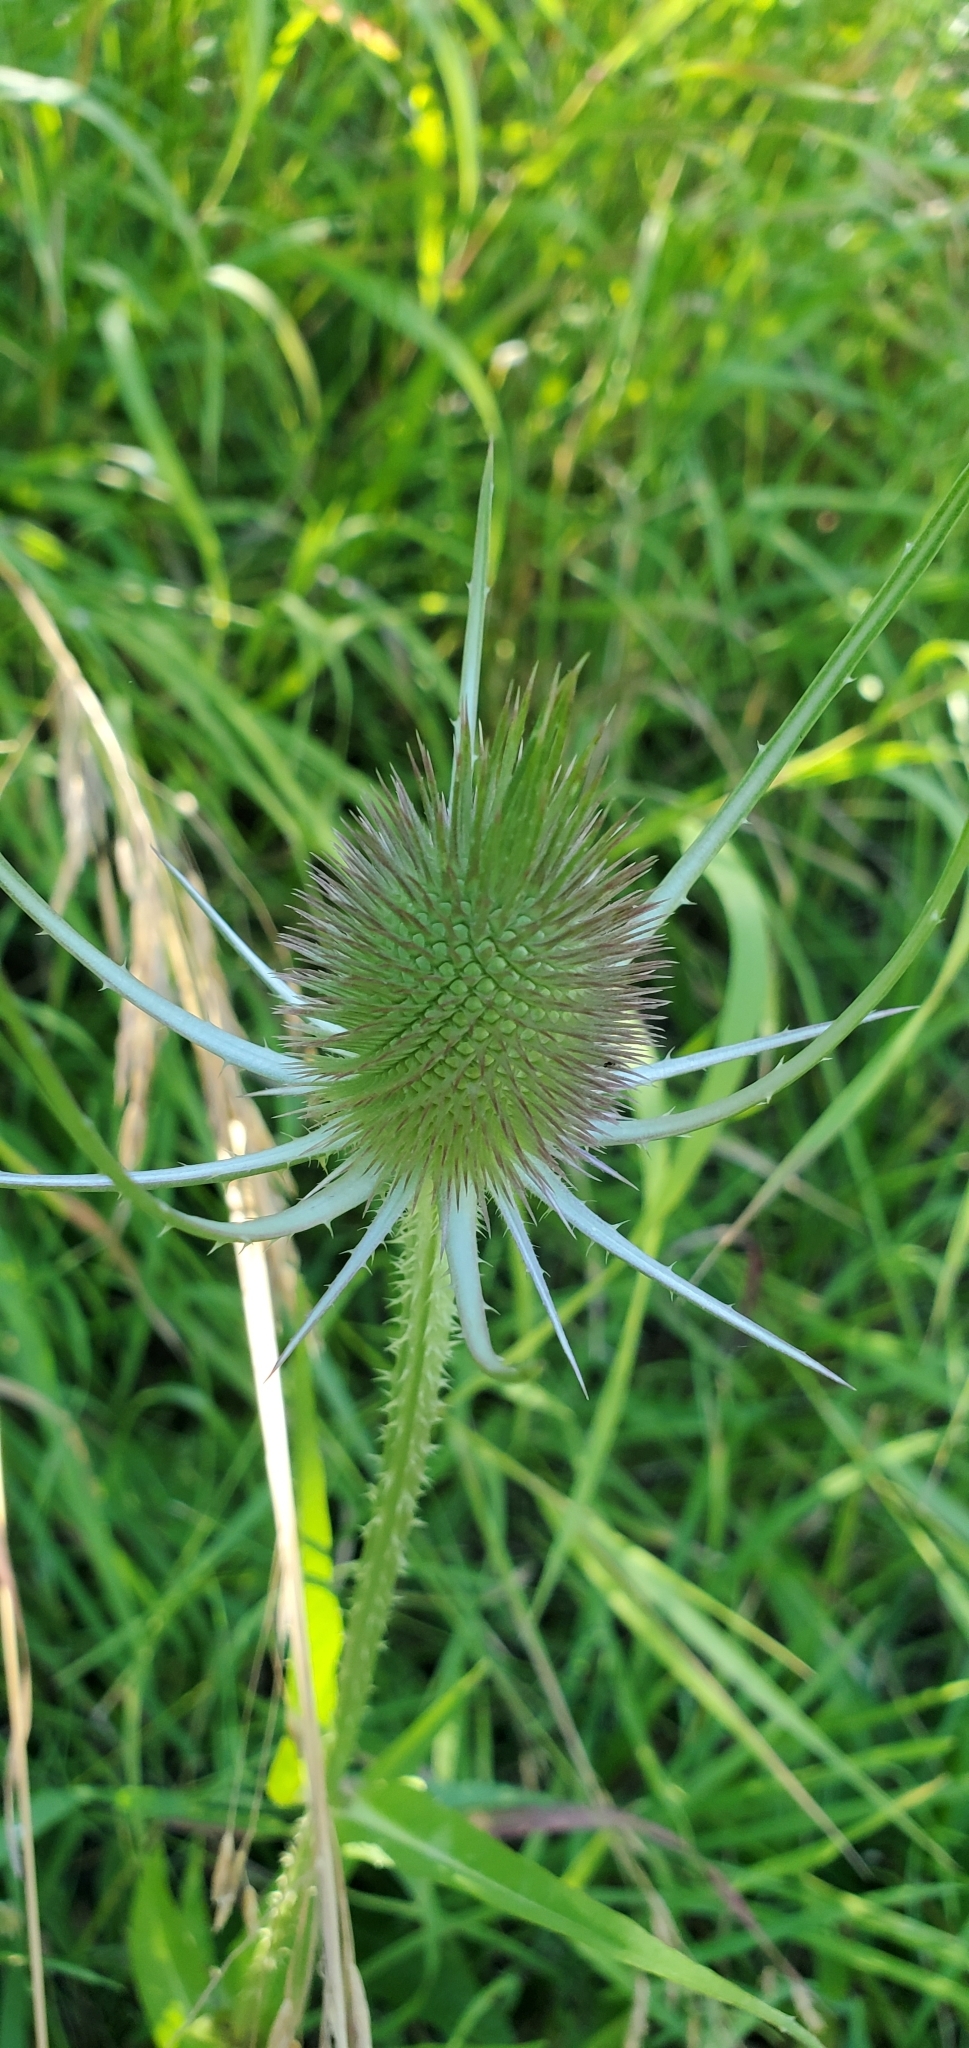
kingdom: Plantae
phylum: Tracheophyta
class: Magnoliopsida
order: Dipsacales
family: Caprifoliaceae
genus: Dipsacus
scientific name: Dipsacus fullonum
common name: Teasel
